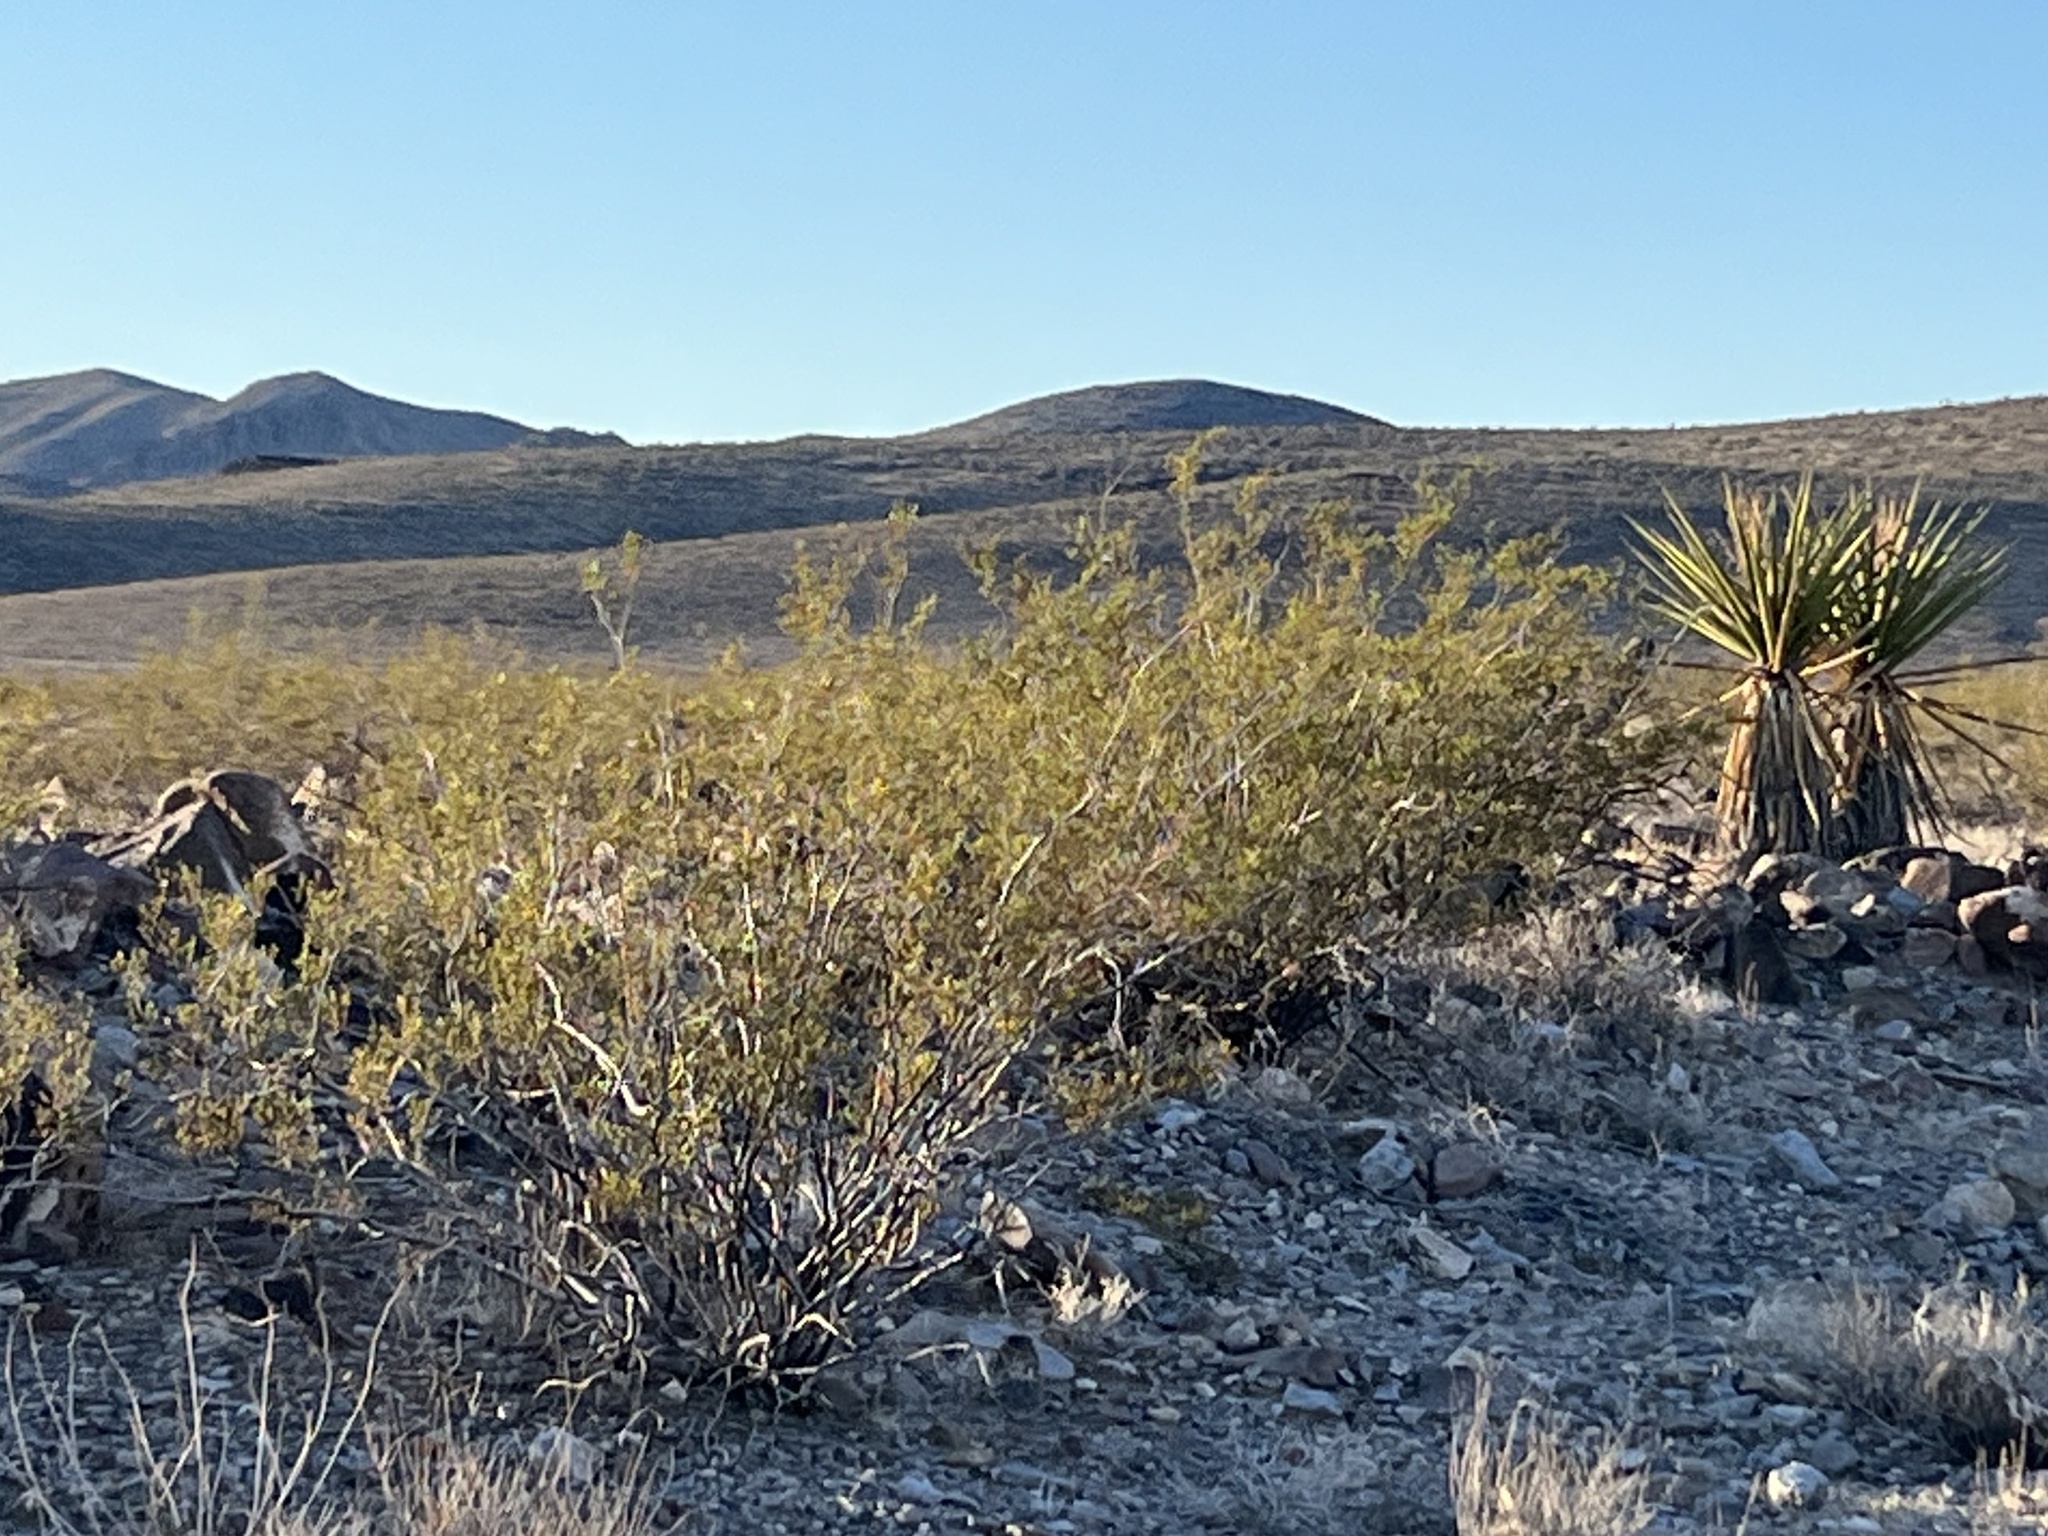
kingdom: Plantae
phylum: Tracheophyta
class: Magnoliopsida
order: Zygophyllales
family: Zygophyllaceae
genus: Larrea
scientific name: Larrea tridentata
